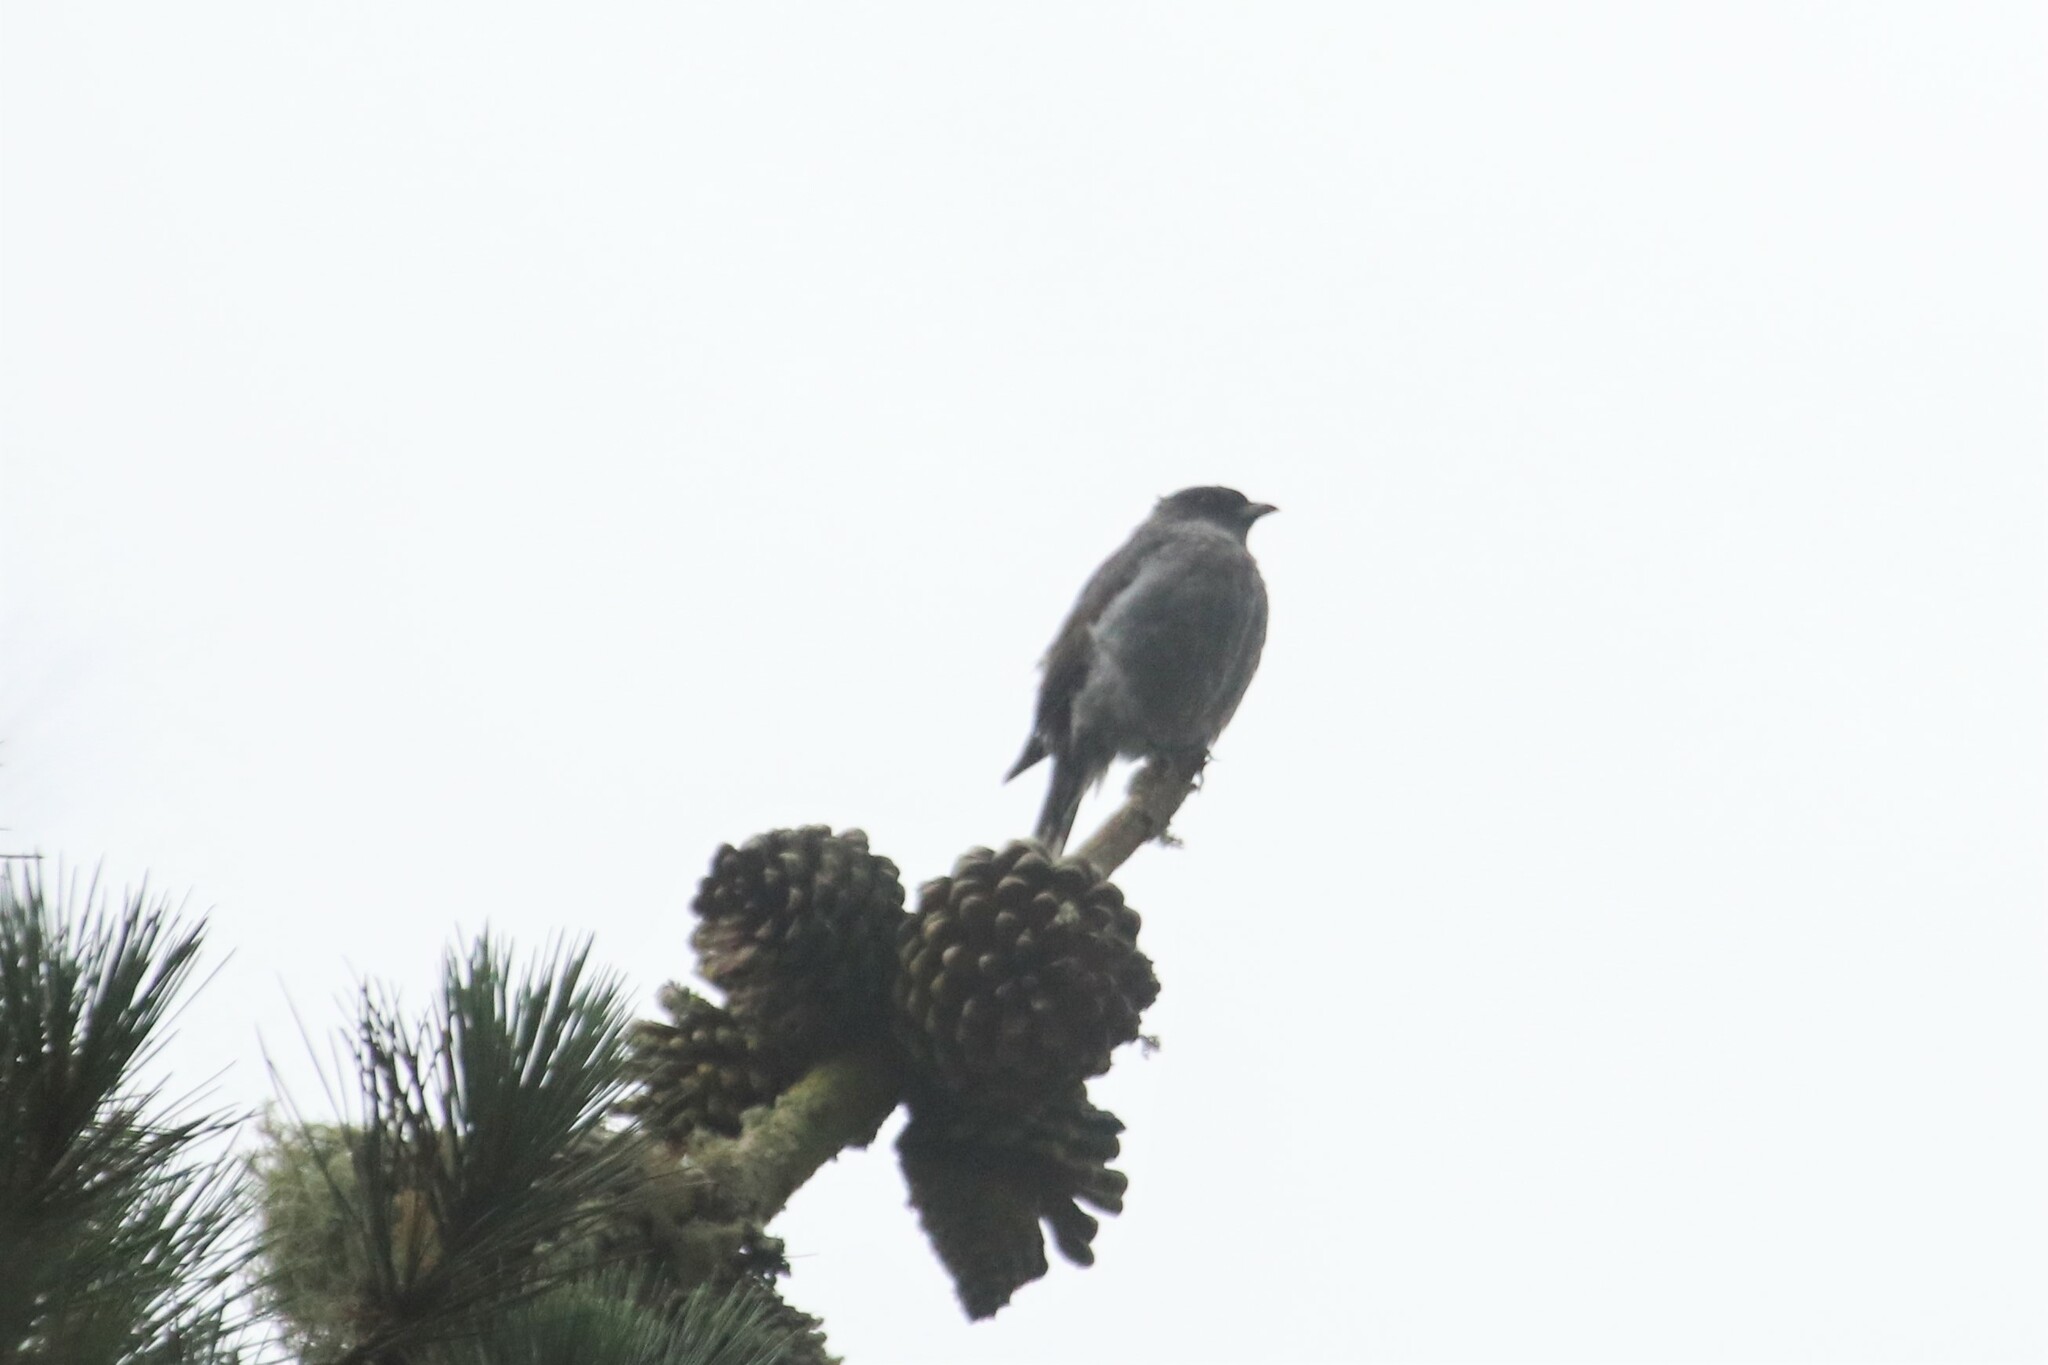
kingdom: Animalia
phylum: Chordata
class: Aves
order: Passeriformes
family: Cotingidae
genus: Ampelion
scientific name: Ampelion rubrocristatus
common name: Red-crested cotinga
